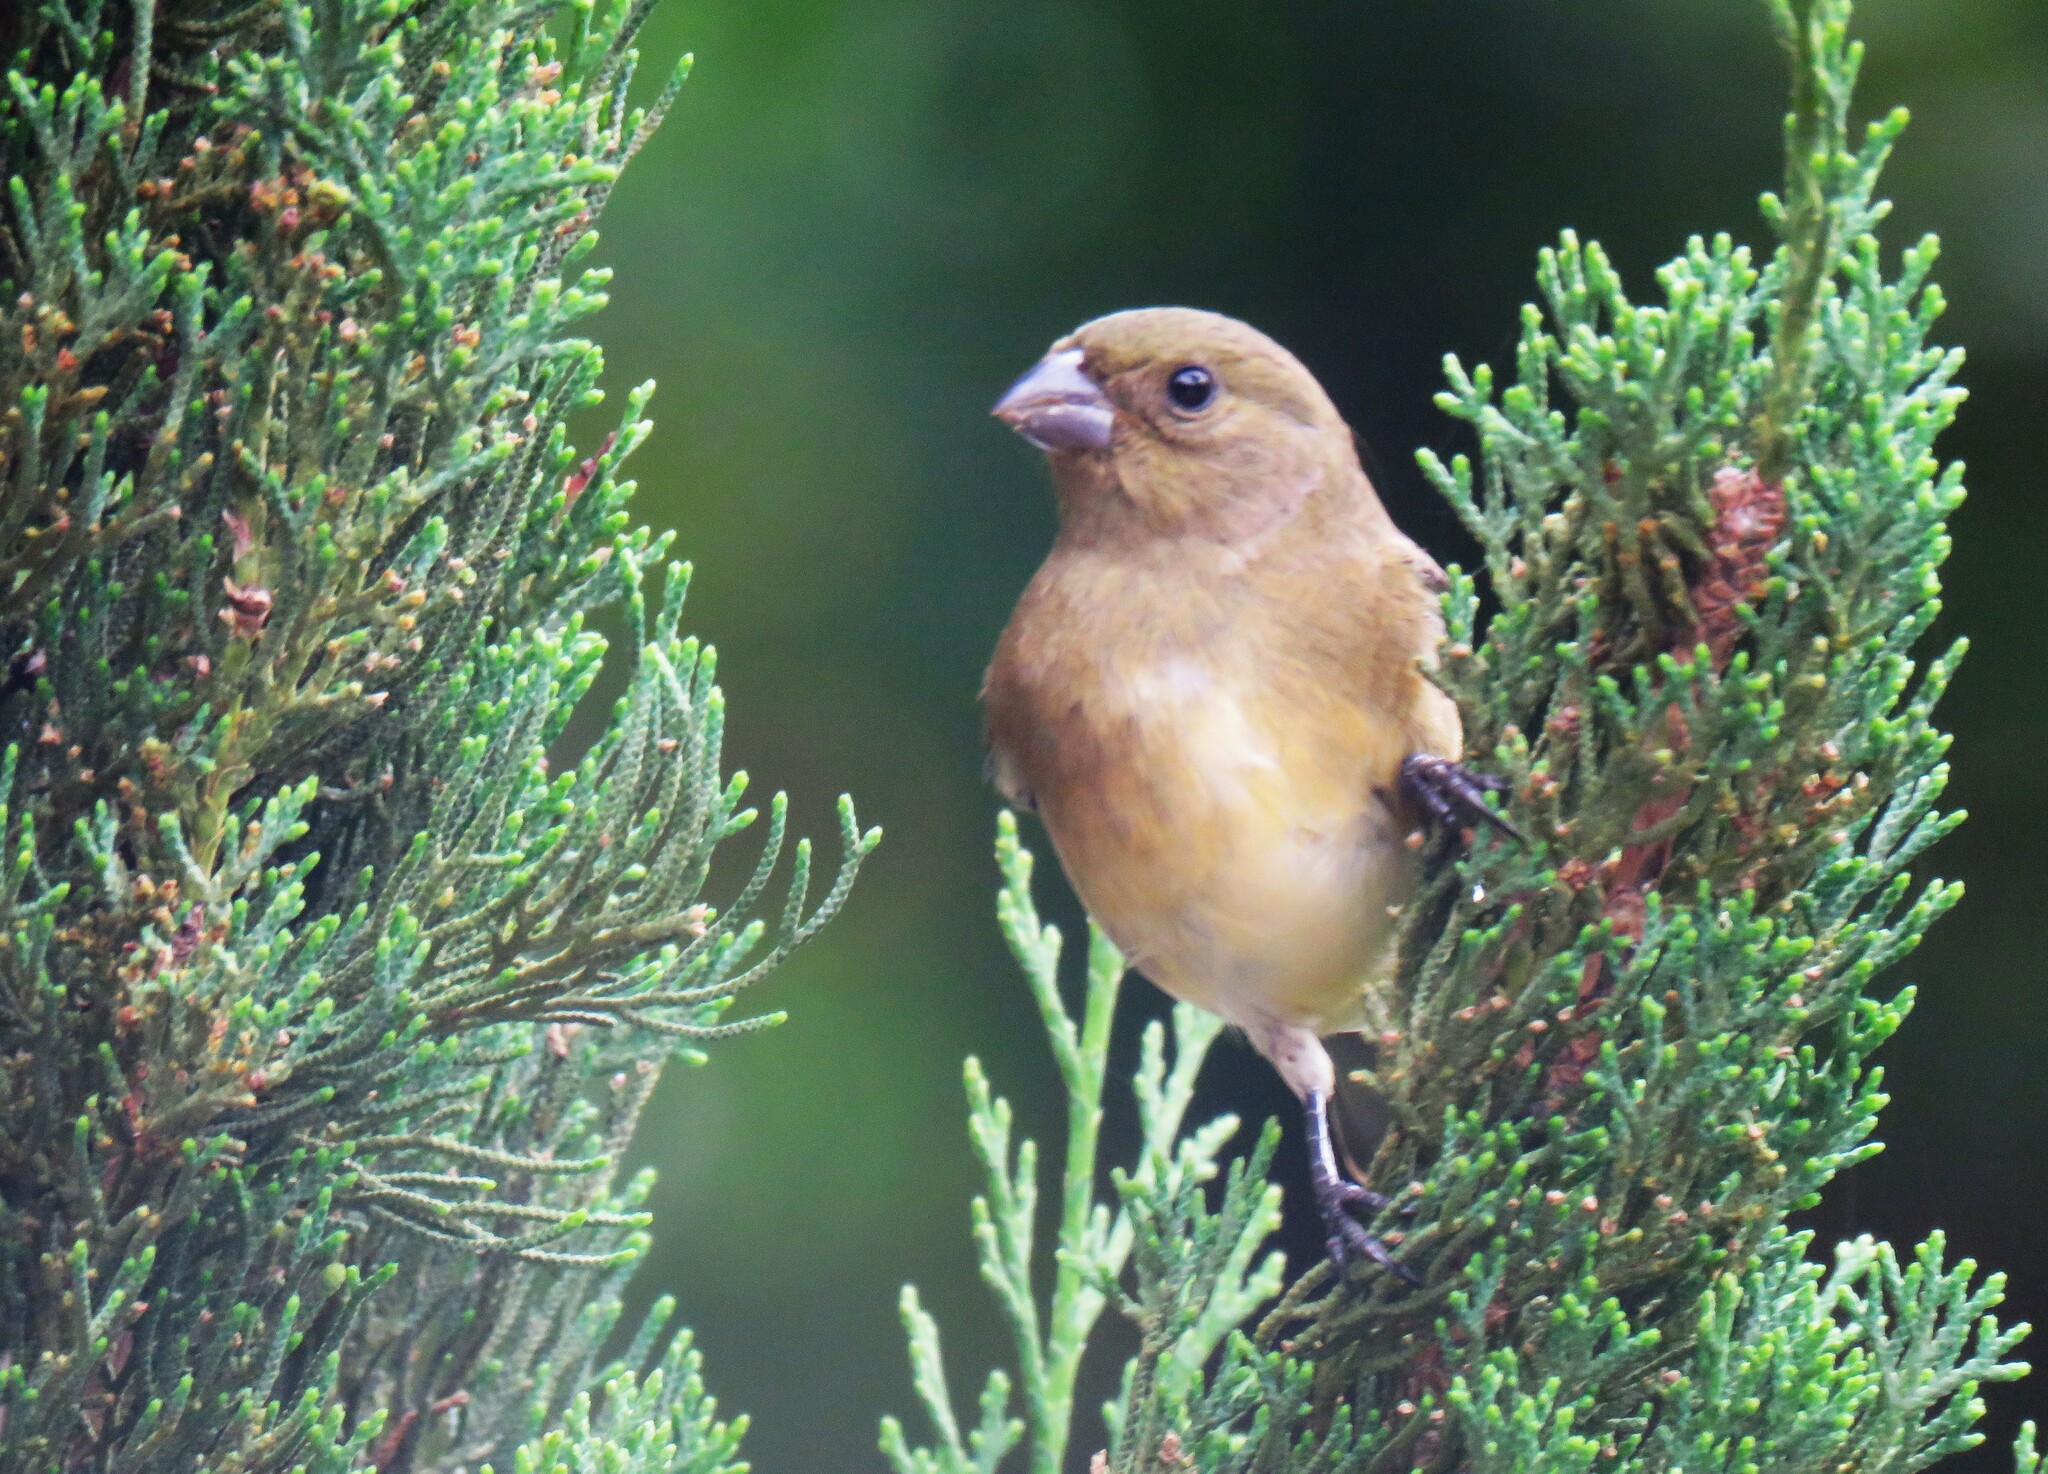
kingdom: Animalia
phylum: Chordata
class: Aves
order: Passeriformes
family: Thraupidae
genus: Sporophila
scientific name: Sporophila nigricollis
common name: Yellow-bellied seedeater
